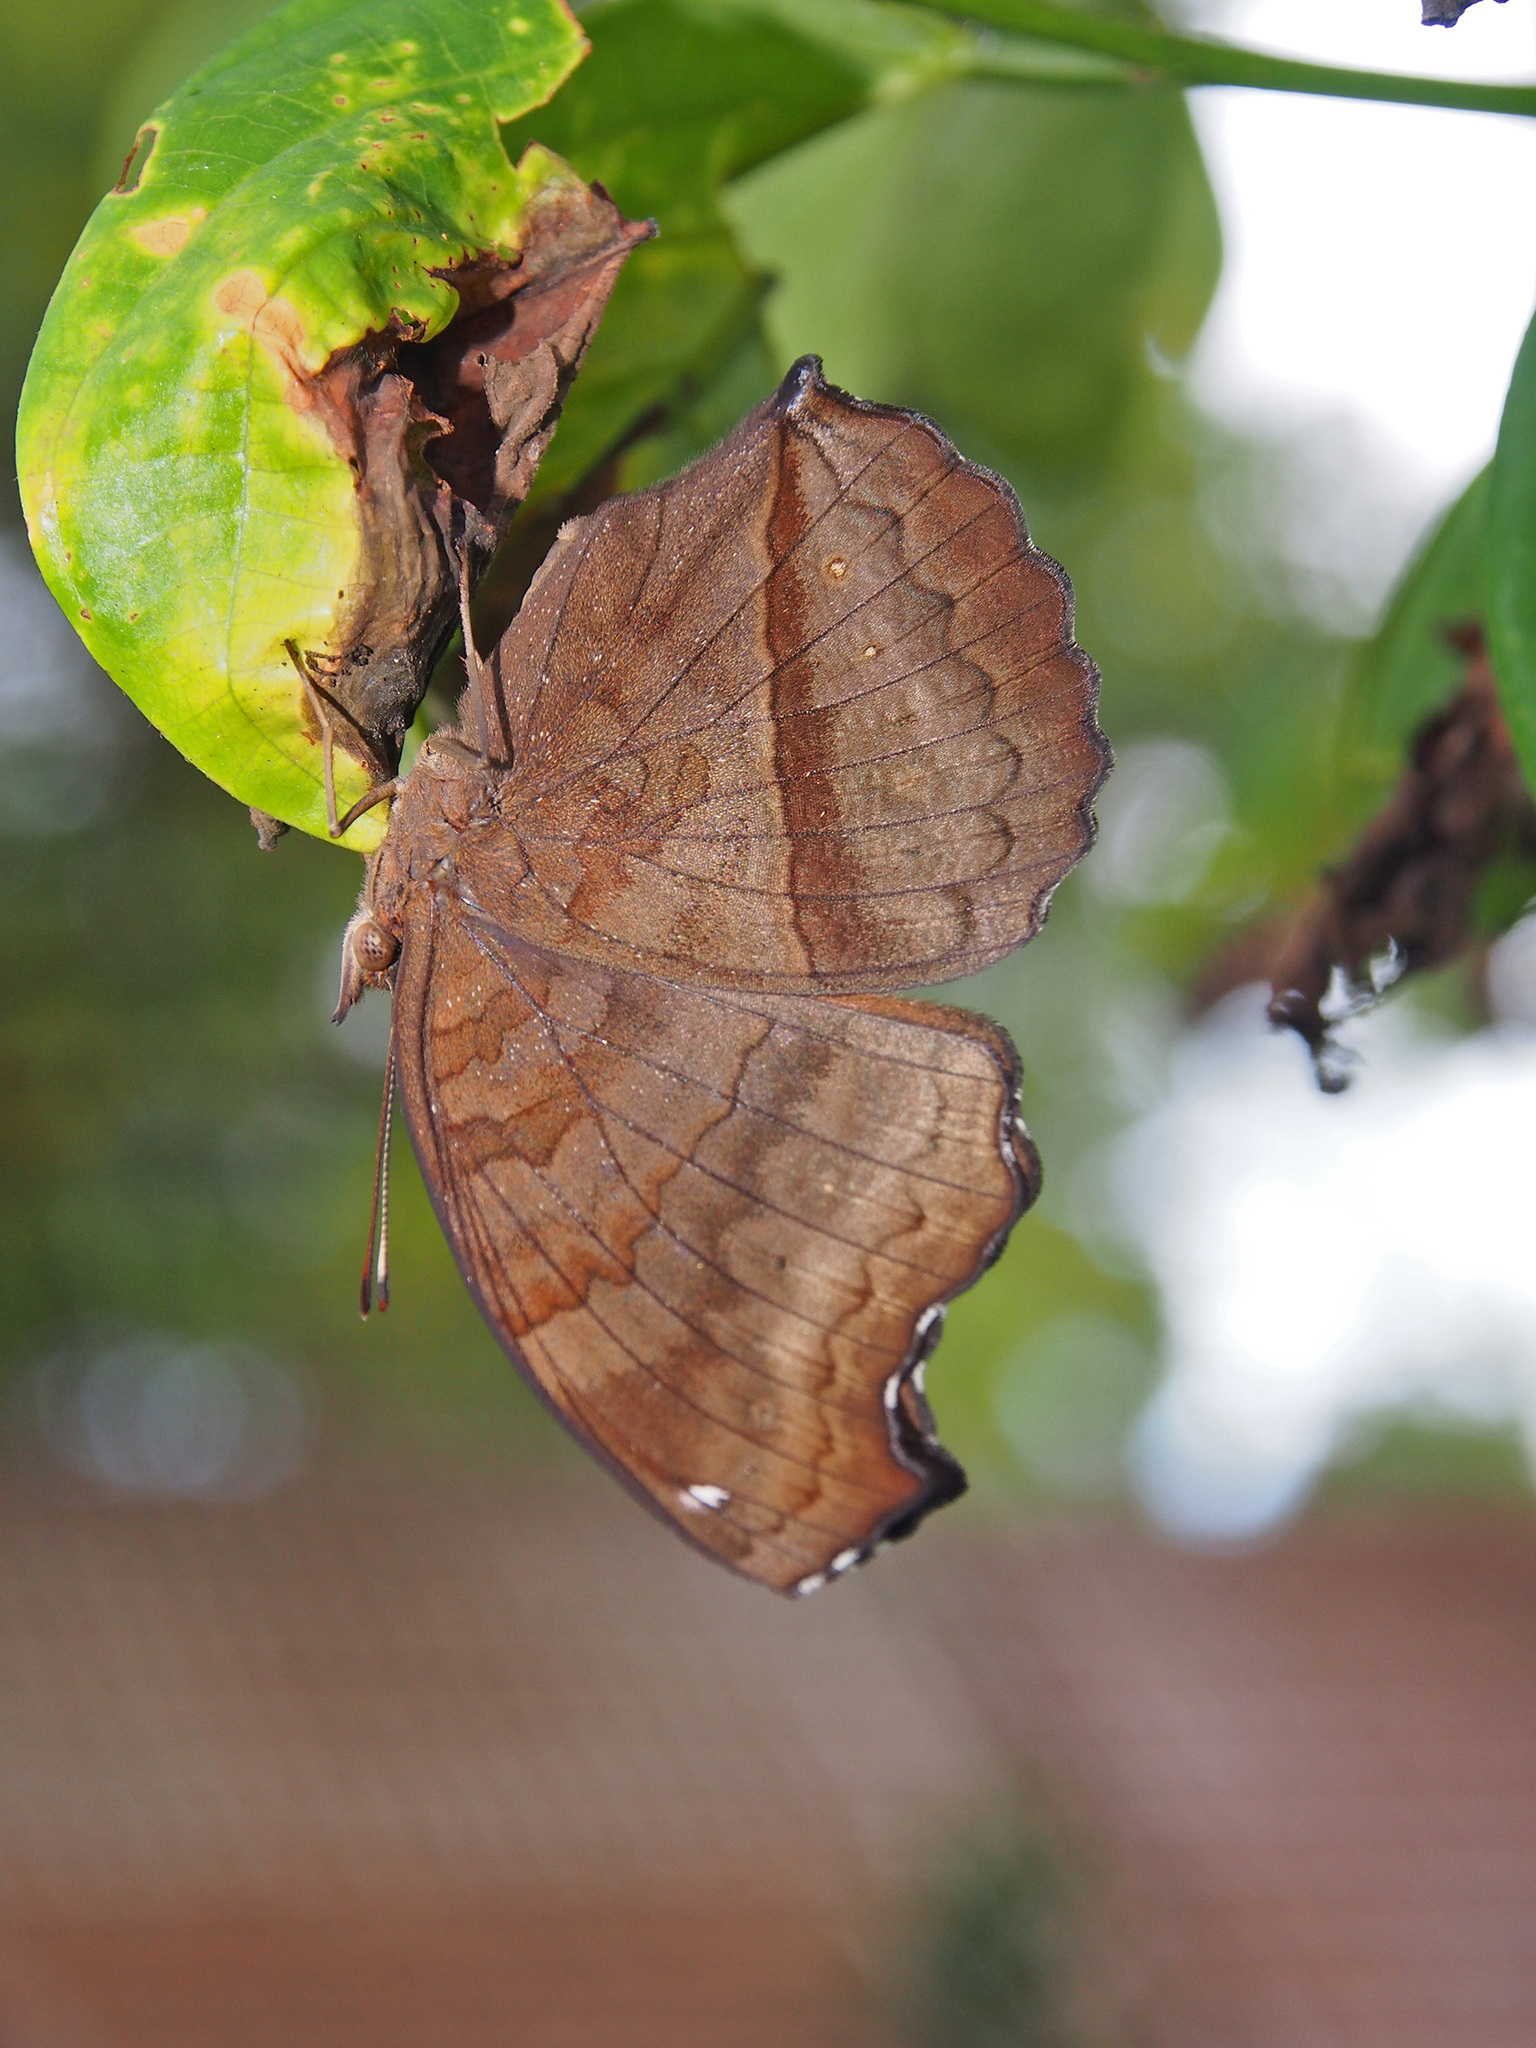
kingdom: Animalia
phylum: Arthropoda
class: Insecta
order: Lepidoptera
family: Nymphalidae
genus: Junonia
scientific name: Junonia iphita
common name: Chocolate pansy
